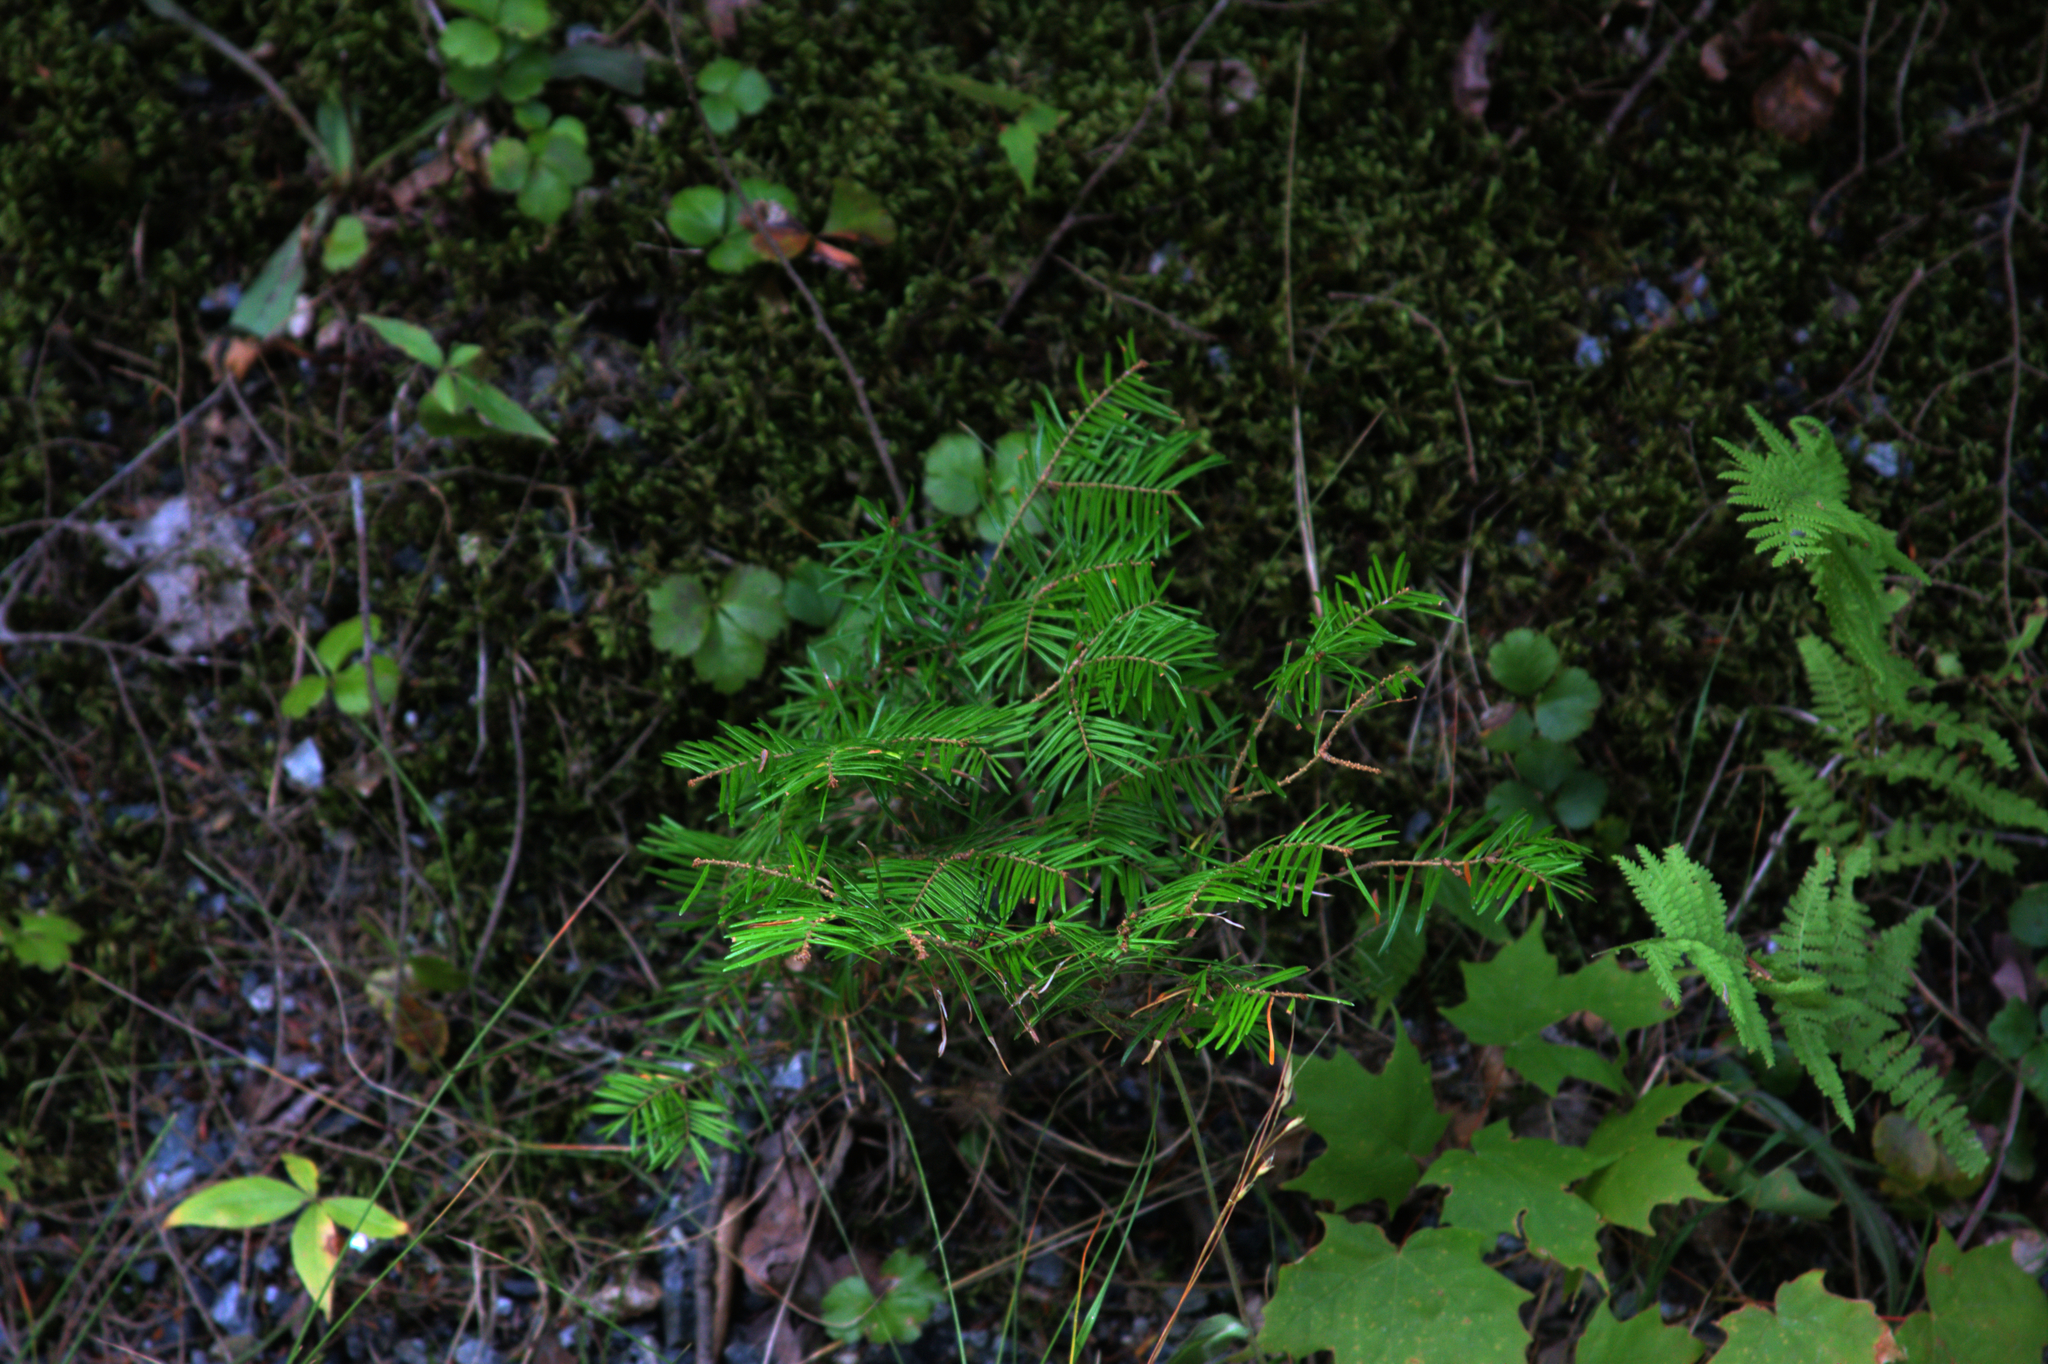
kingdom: Plantae
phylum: Tracheophyta
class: Magnoliopsida
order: Sapindales
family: Sapindaceae
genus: Acer
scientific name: Acer saccharum
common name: Sugar maple
